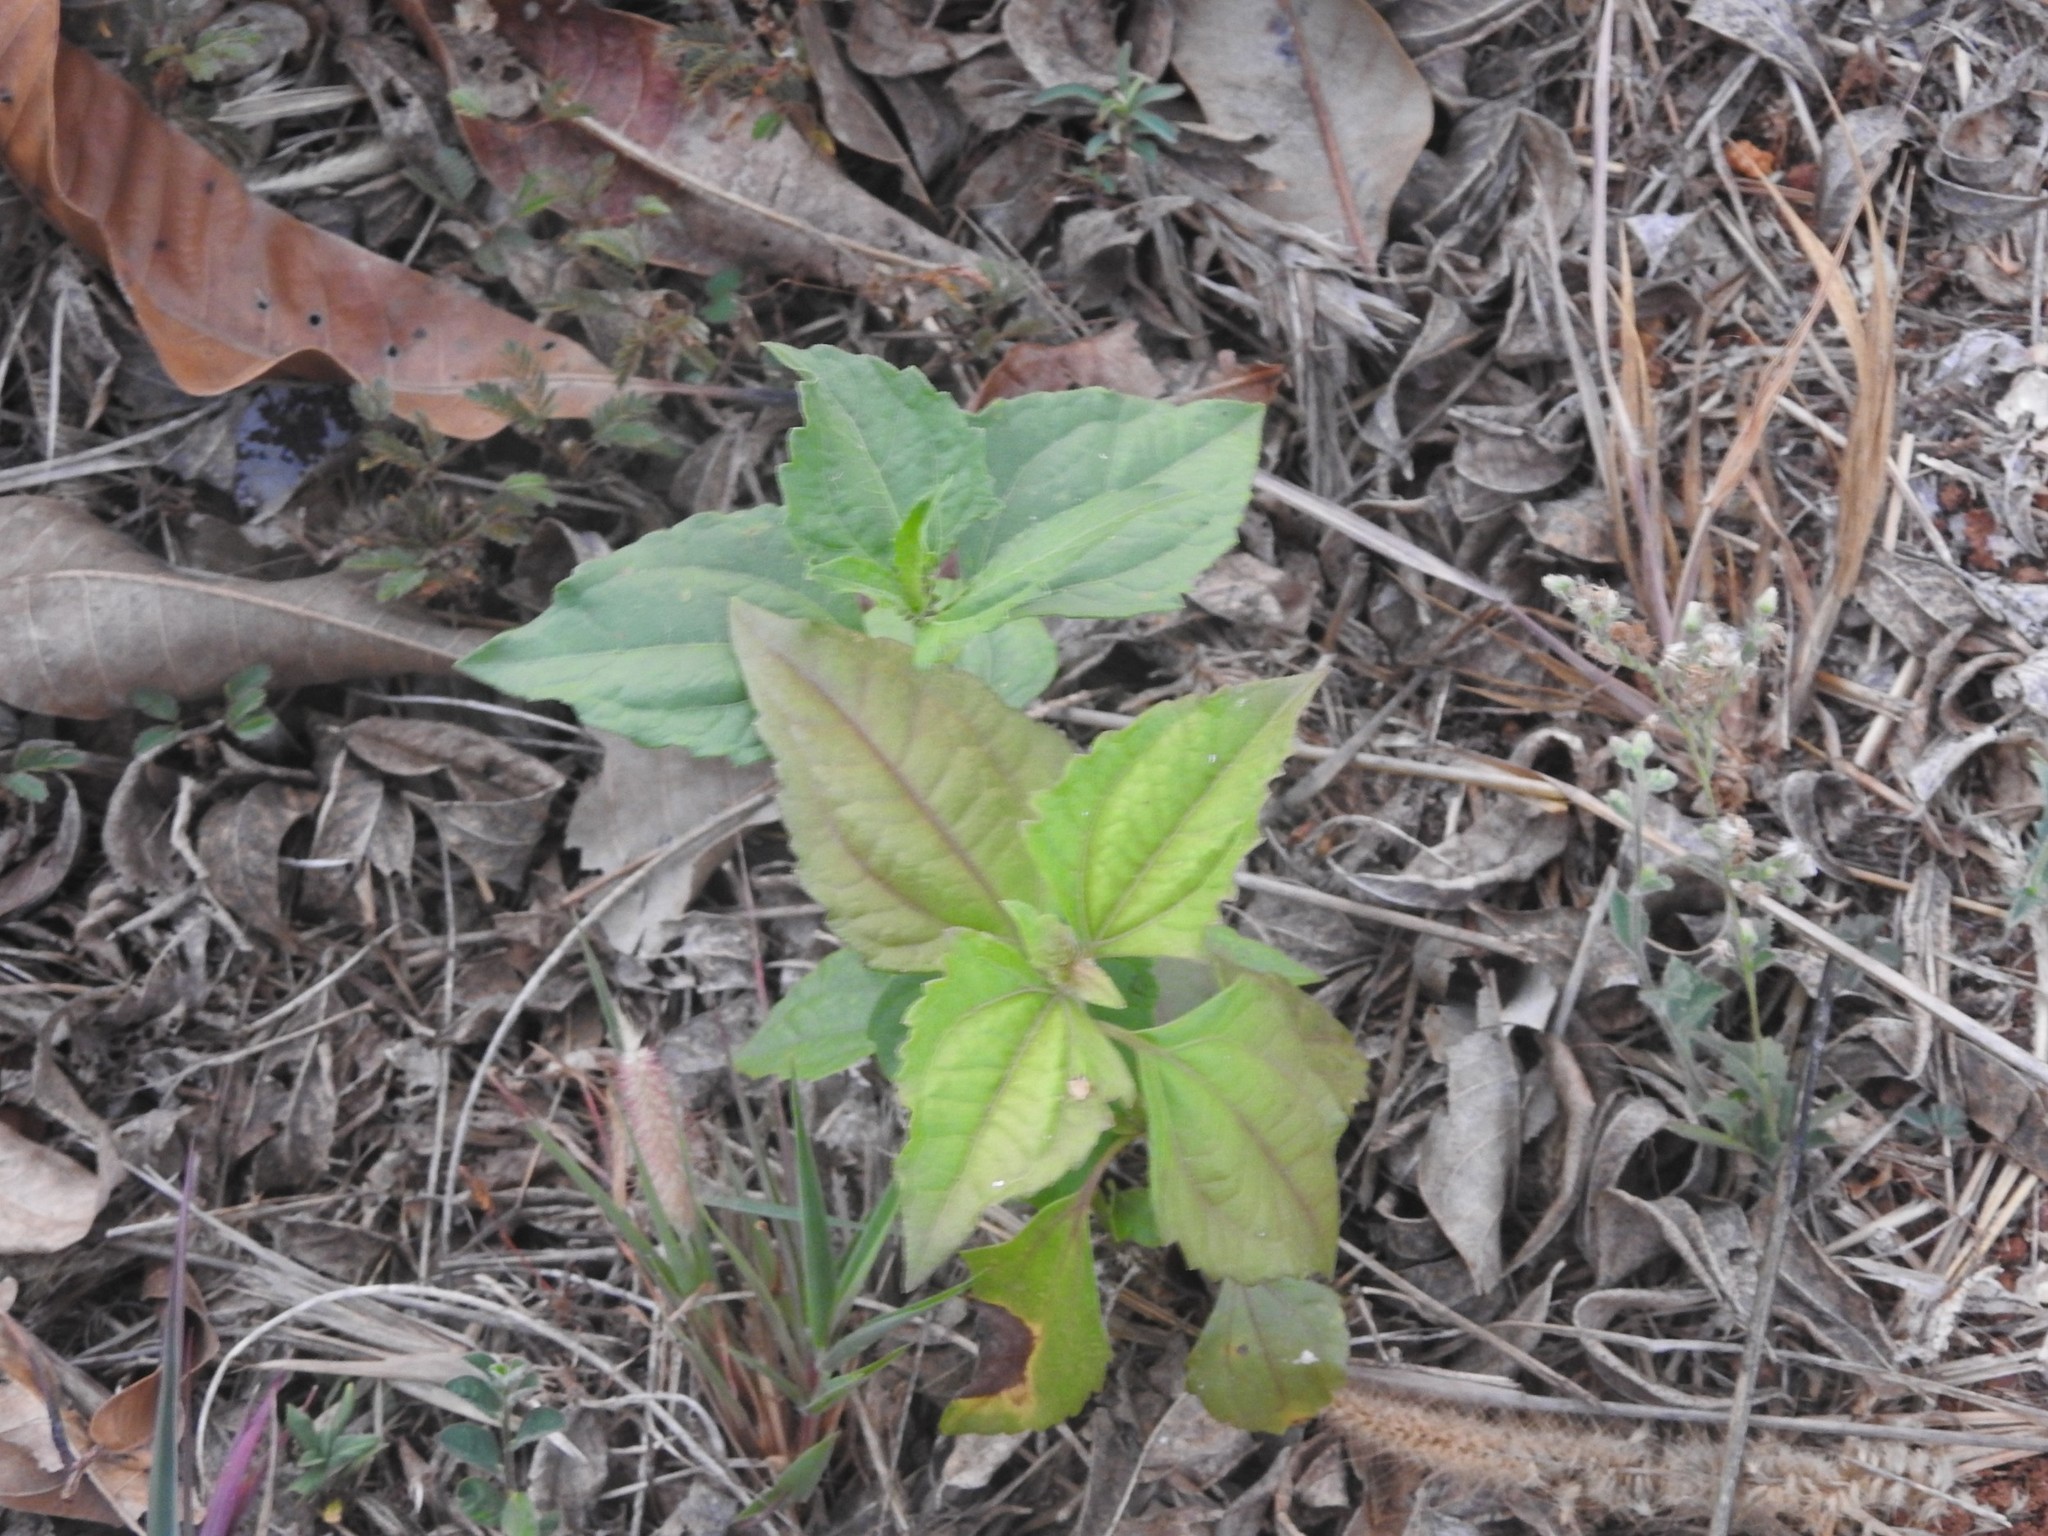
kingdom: Plantae
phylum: Tracheophyta
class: Magnoliopsida
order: Asterales
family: Asteraceae
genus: Chromolaena
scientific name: Chromolaena odorata
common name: Siamweed
